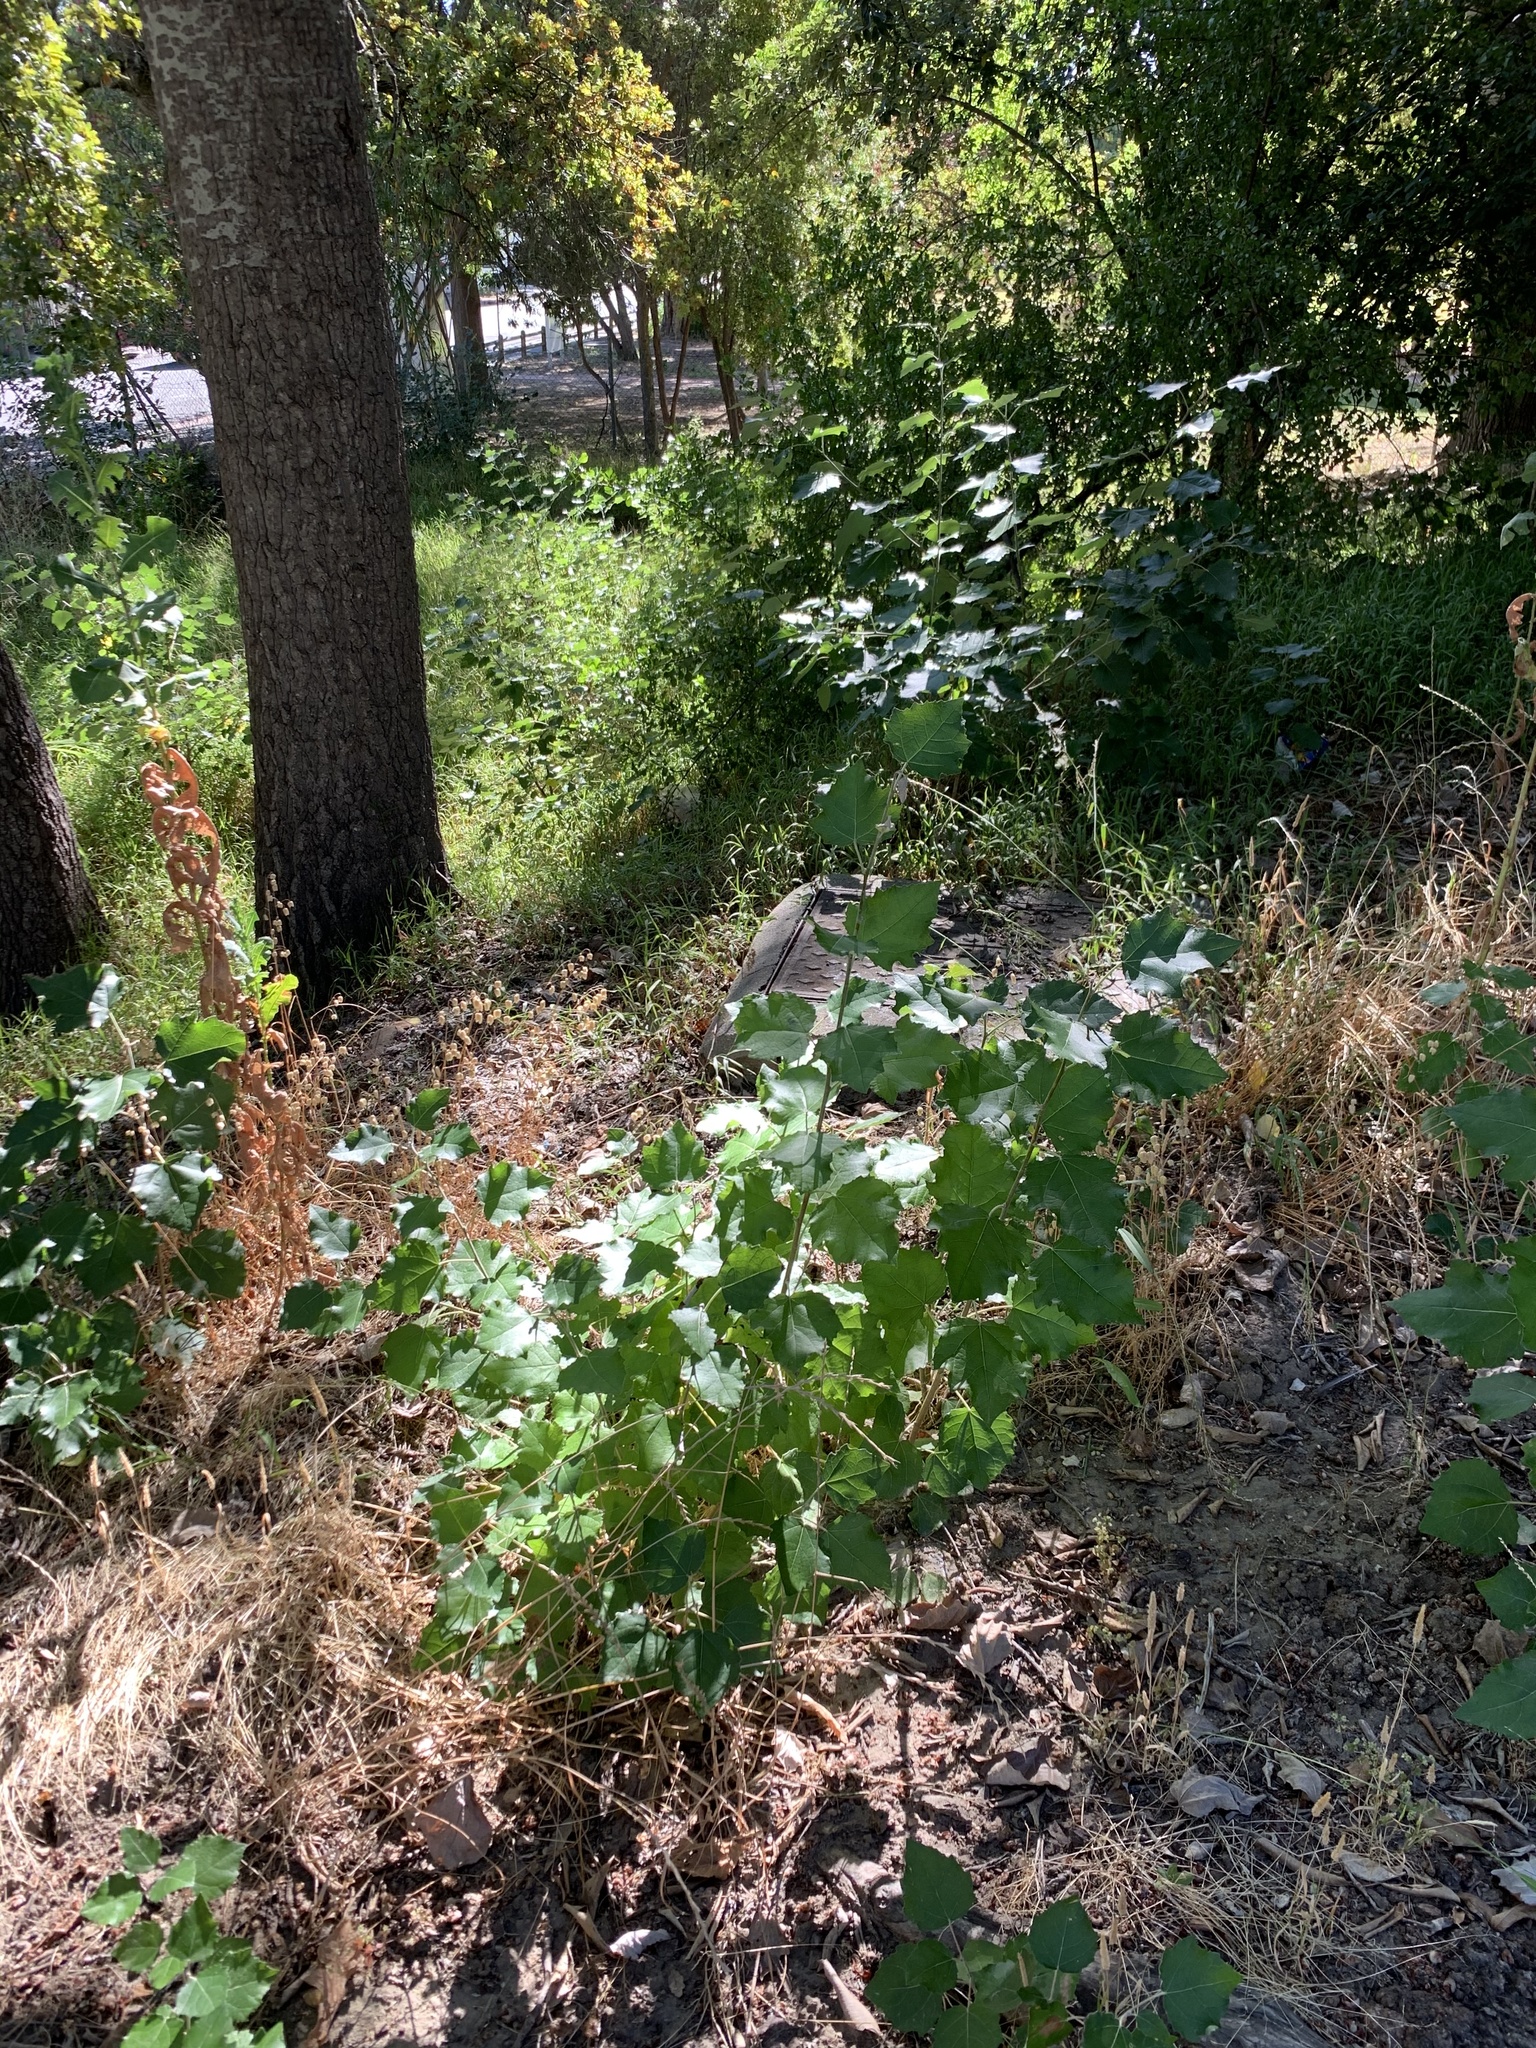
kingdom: Plantae
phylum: Tracheophyta
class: Magnoliopsida
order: Malpighiales
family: Salicaceae
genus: Populus
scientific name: Populus canescens
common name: Gray poplar
